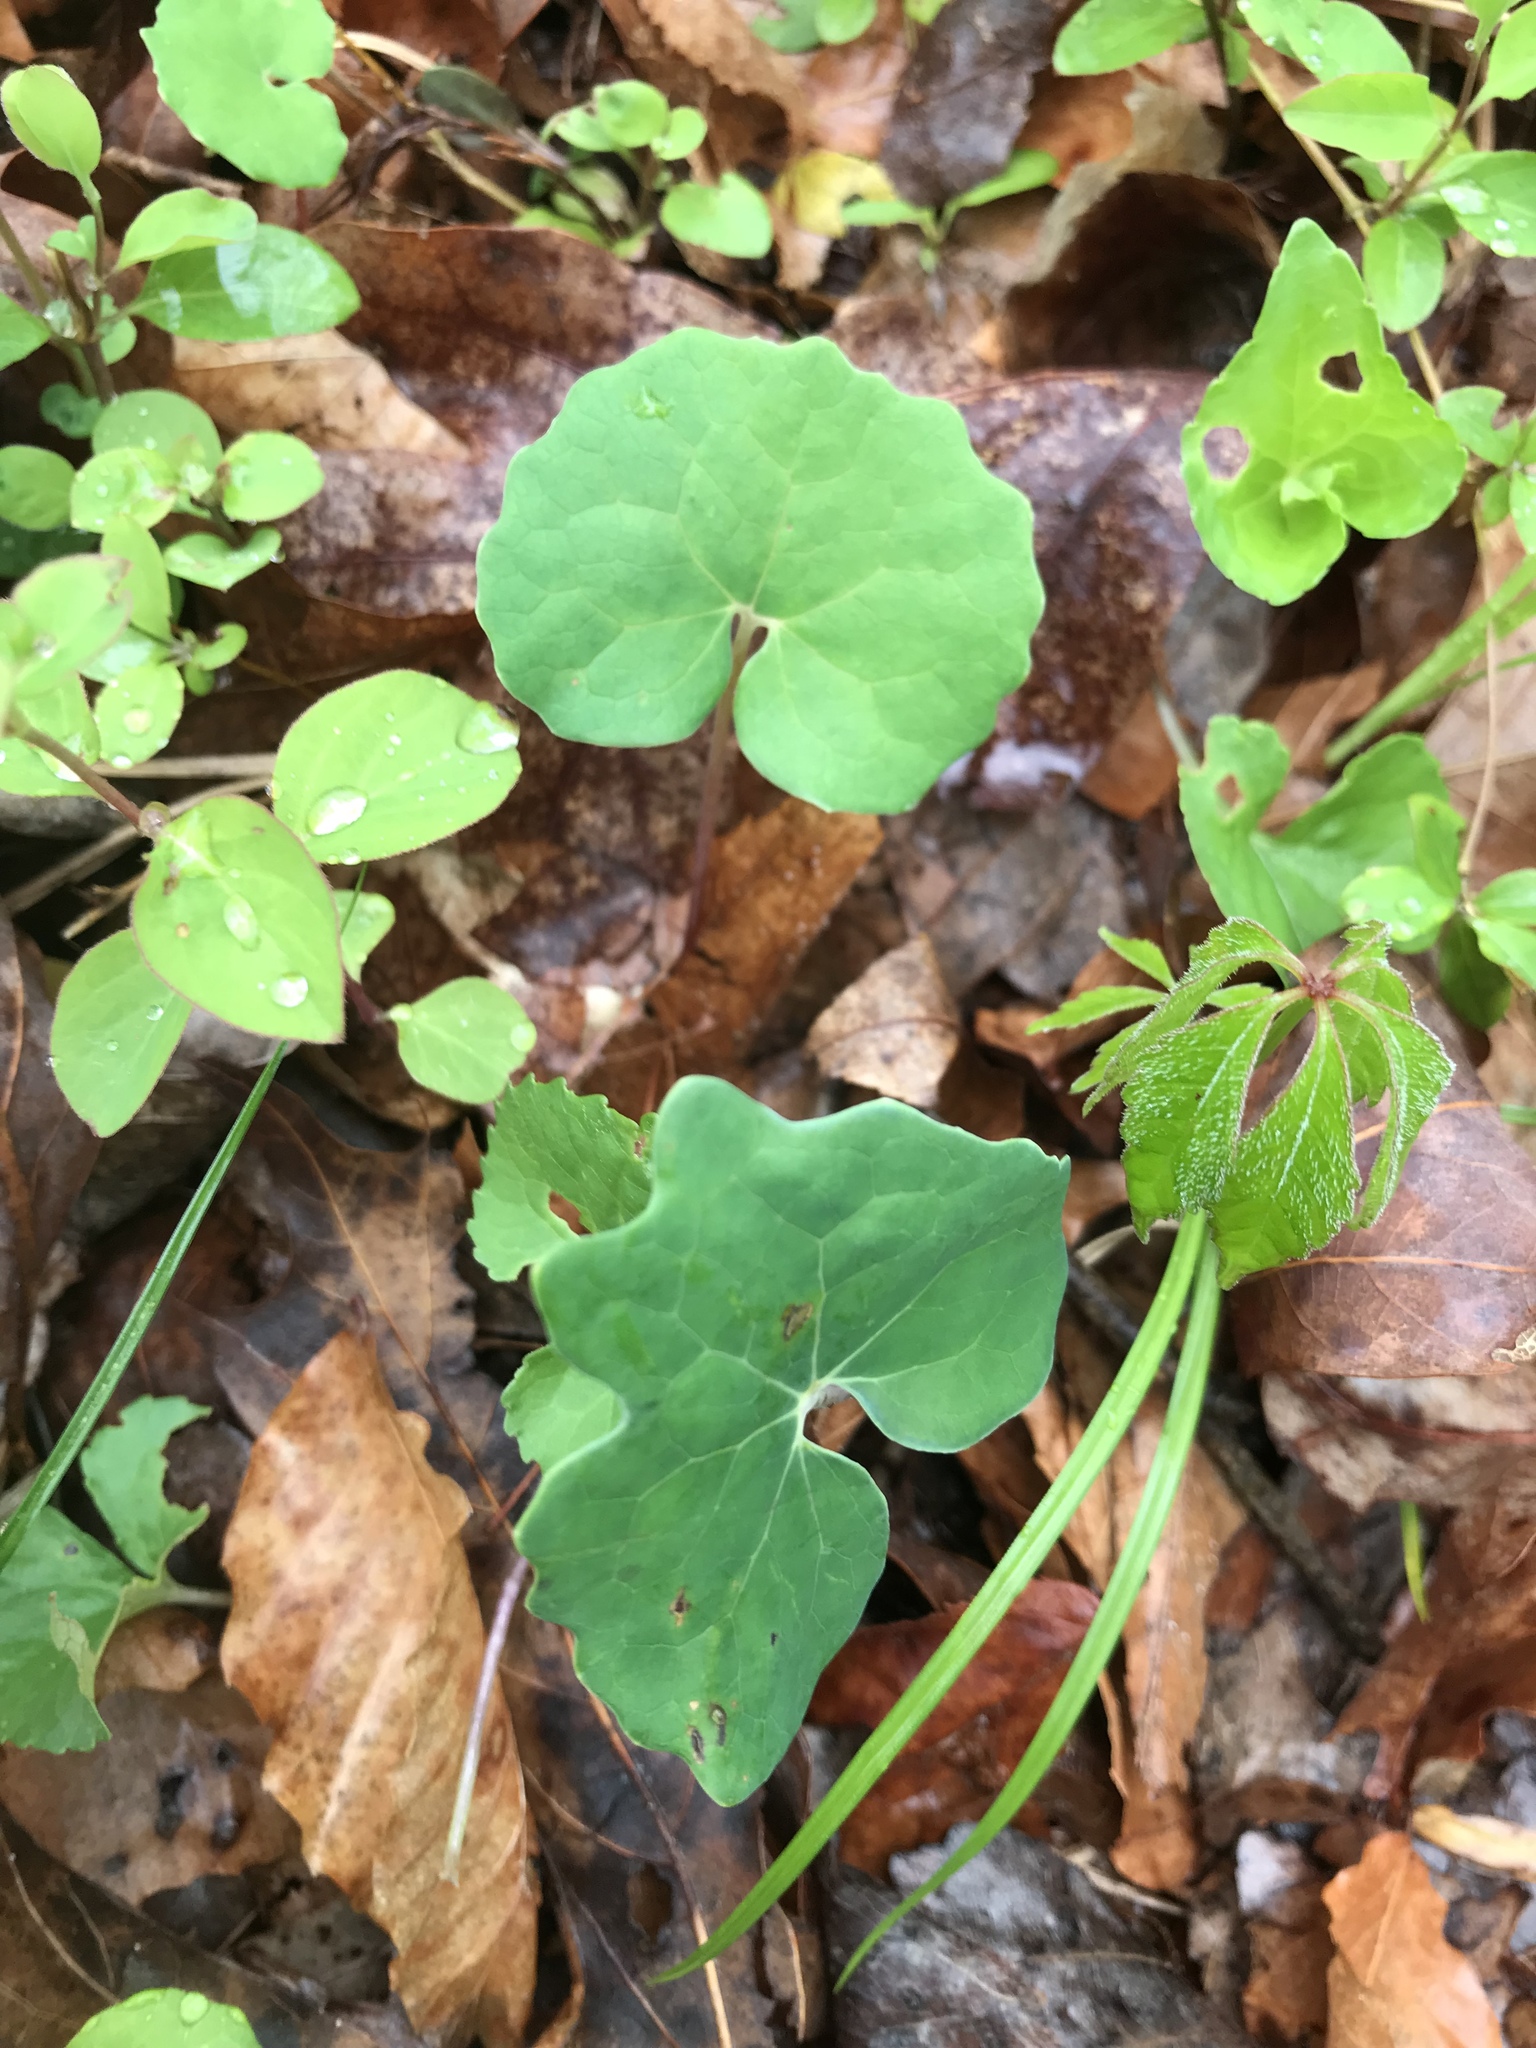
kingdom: Plantae
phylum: Tracheophyta
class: Magnoliopsida
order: Ranunculales
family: Papaveraceae
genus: Sanguinaria
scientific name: Sanguinaria canadensis
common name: Bloodroot
